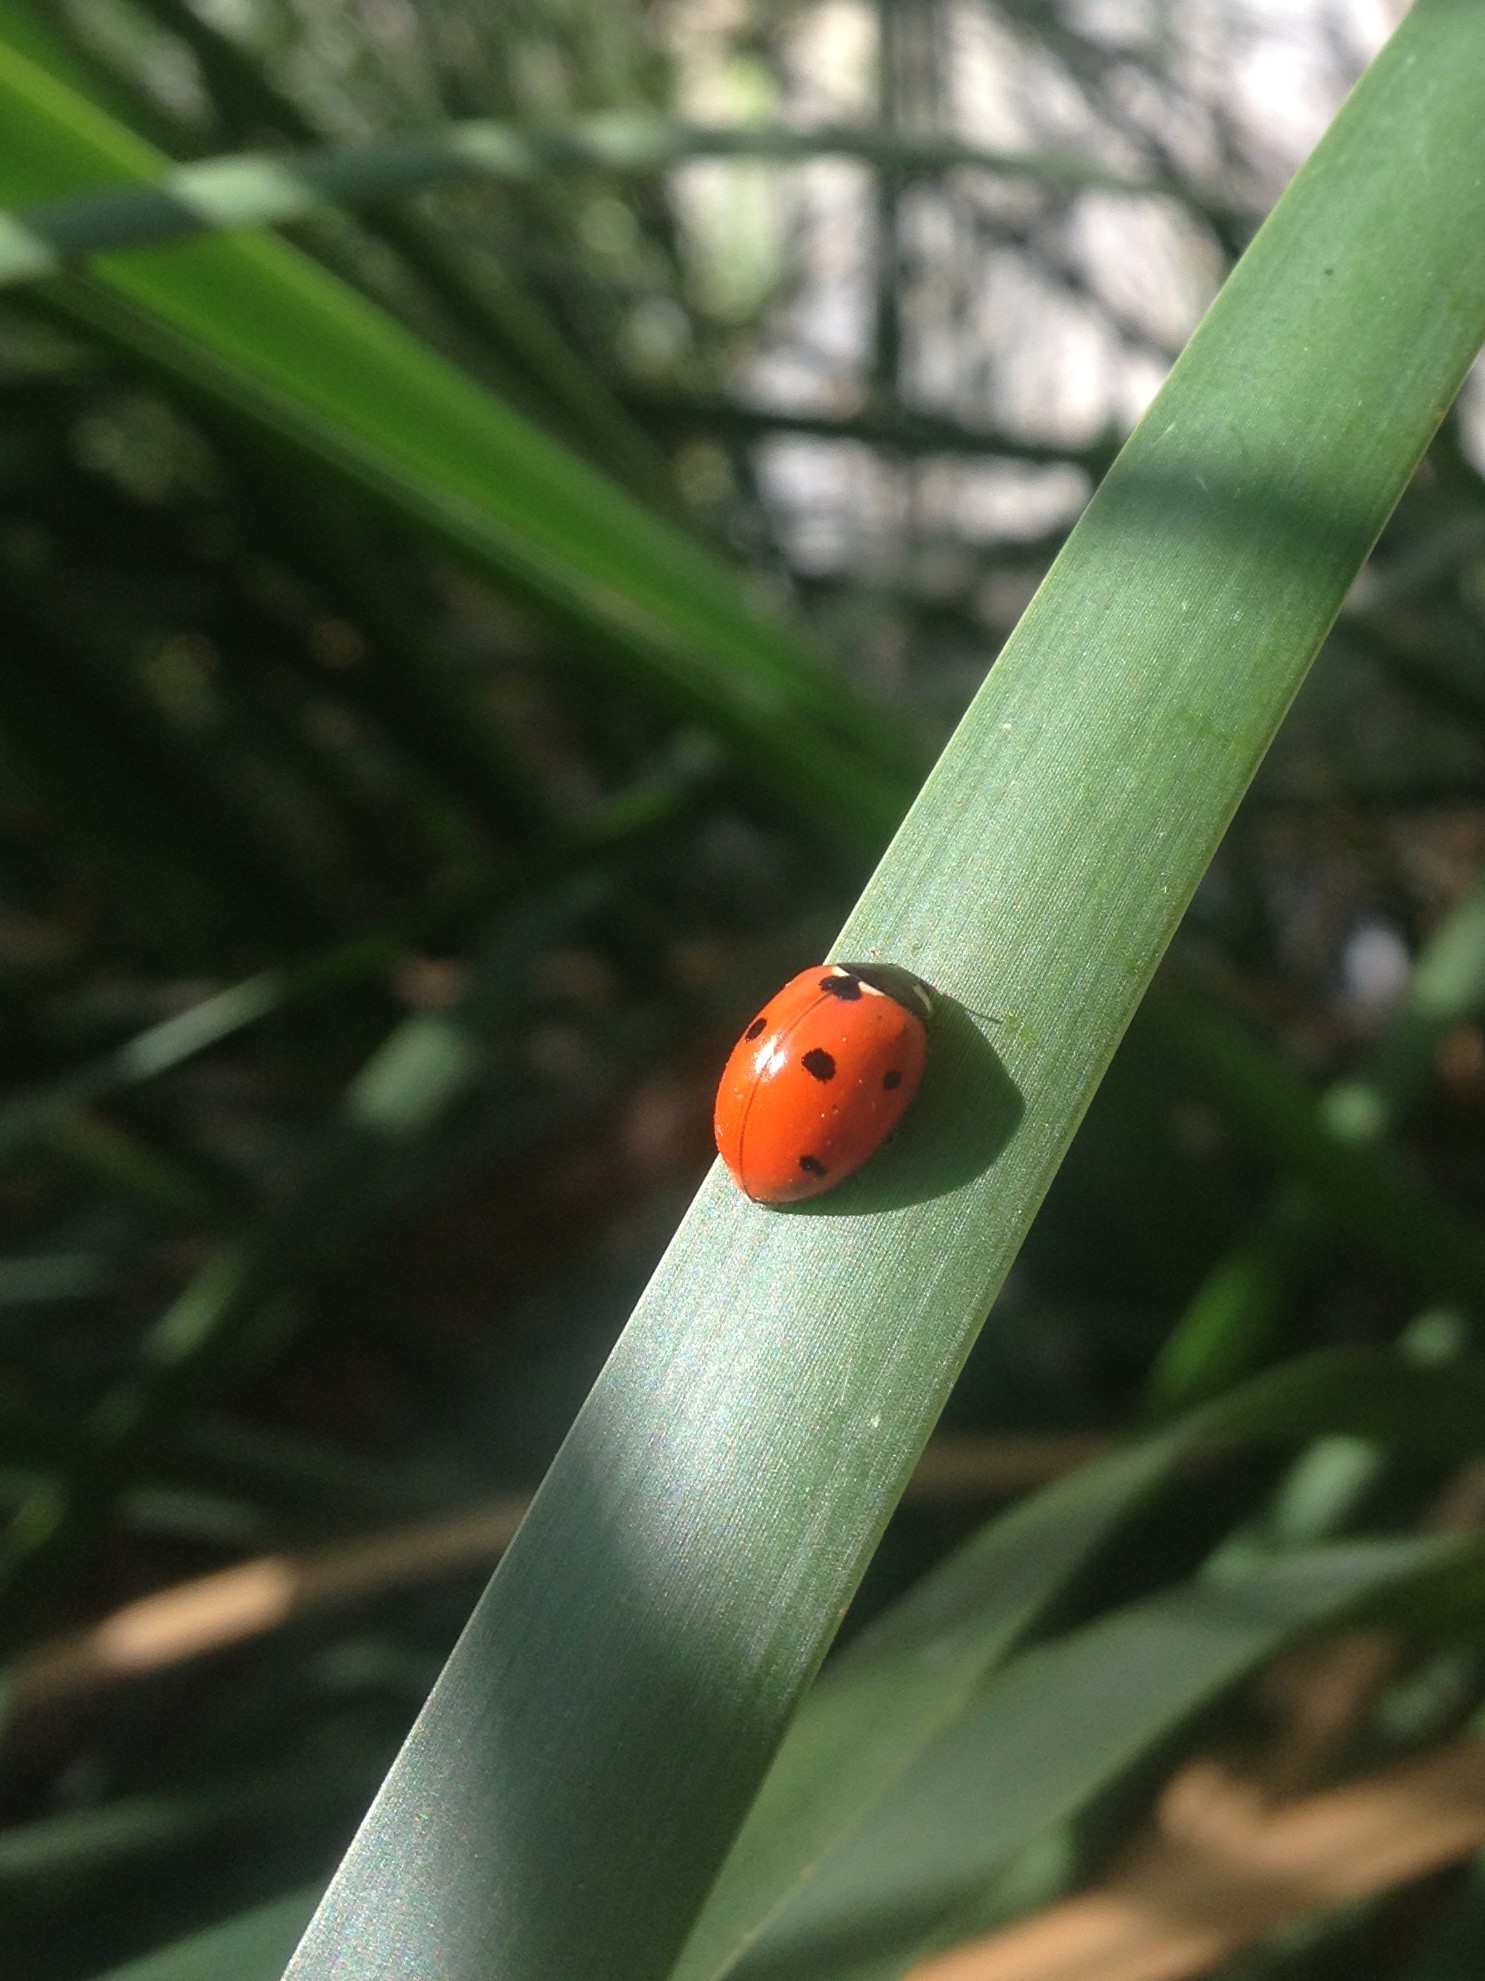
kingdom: Animalia
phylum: Arthropoda
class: Insecta
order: Coleoptera
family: Coccinellidae
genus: Coccinella
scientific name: Coccinella septempunctata
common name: Sevenspotted lady beetle
